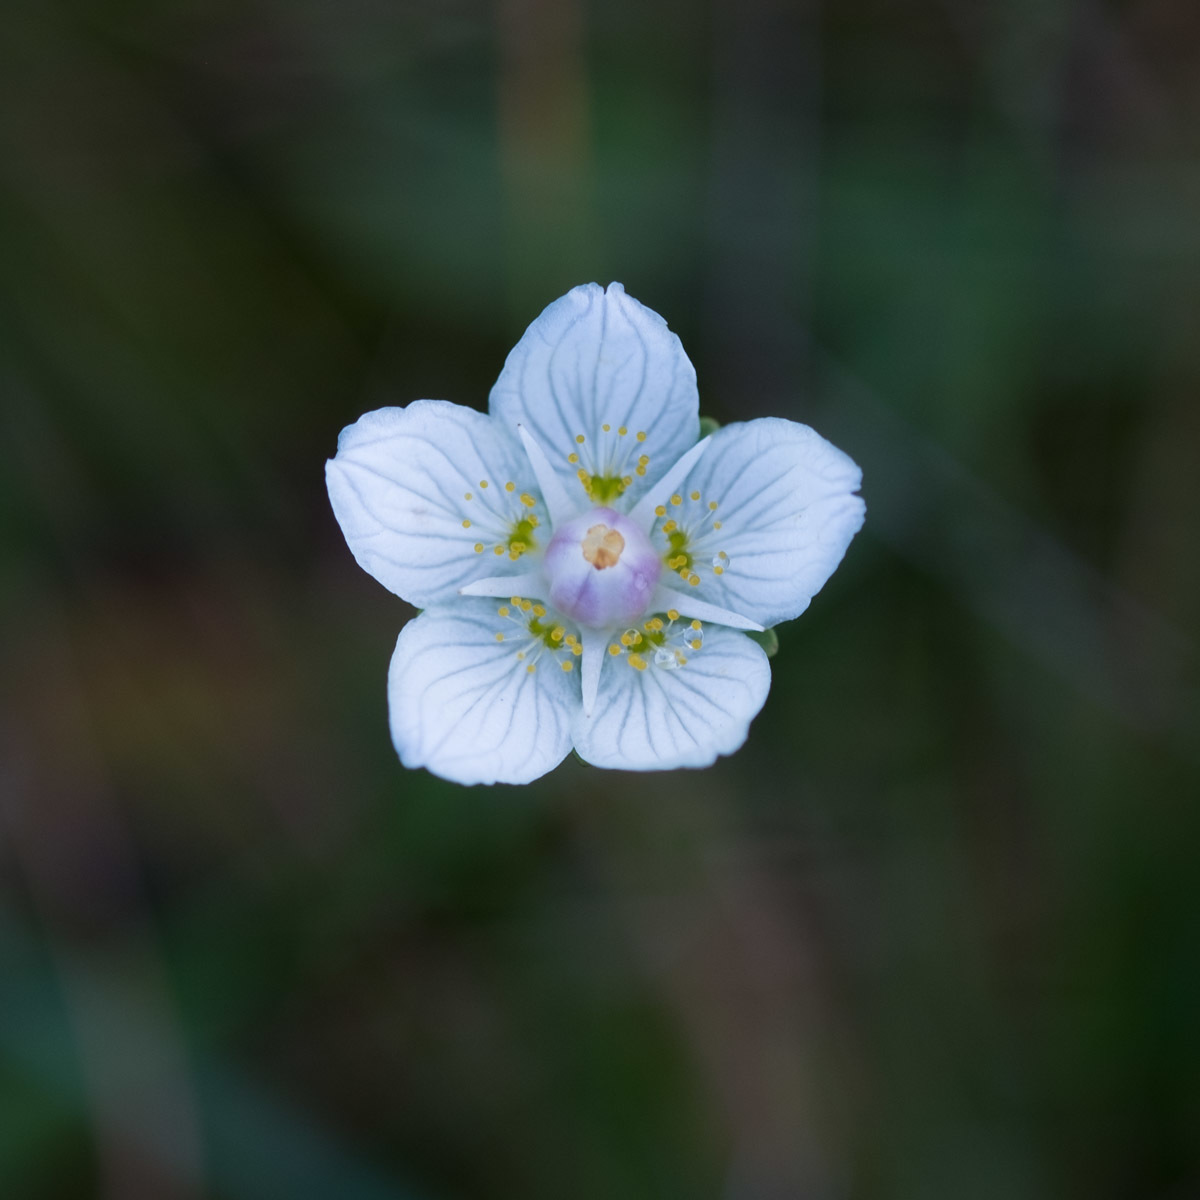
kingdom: Plantae
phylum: Tracheophyta
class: Magnoliopsida
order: Celastrales
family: Parnassiaceae
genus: Parnassia
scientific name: Parnassia palustris
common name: Grass-of-parnassus
